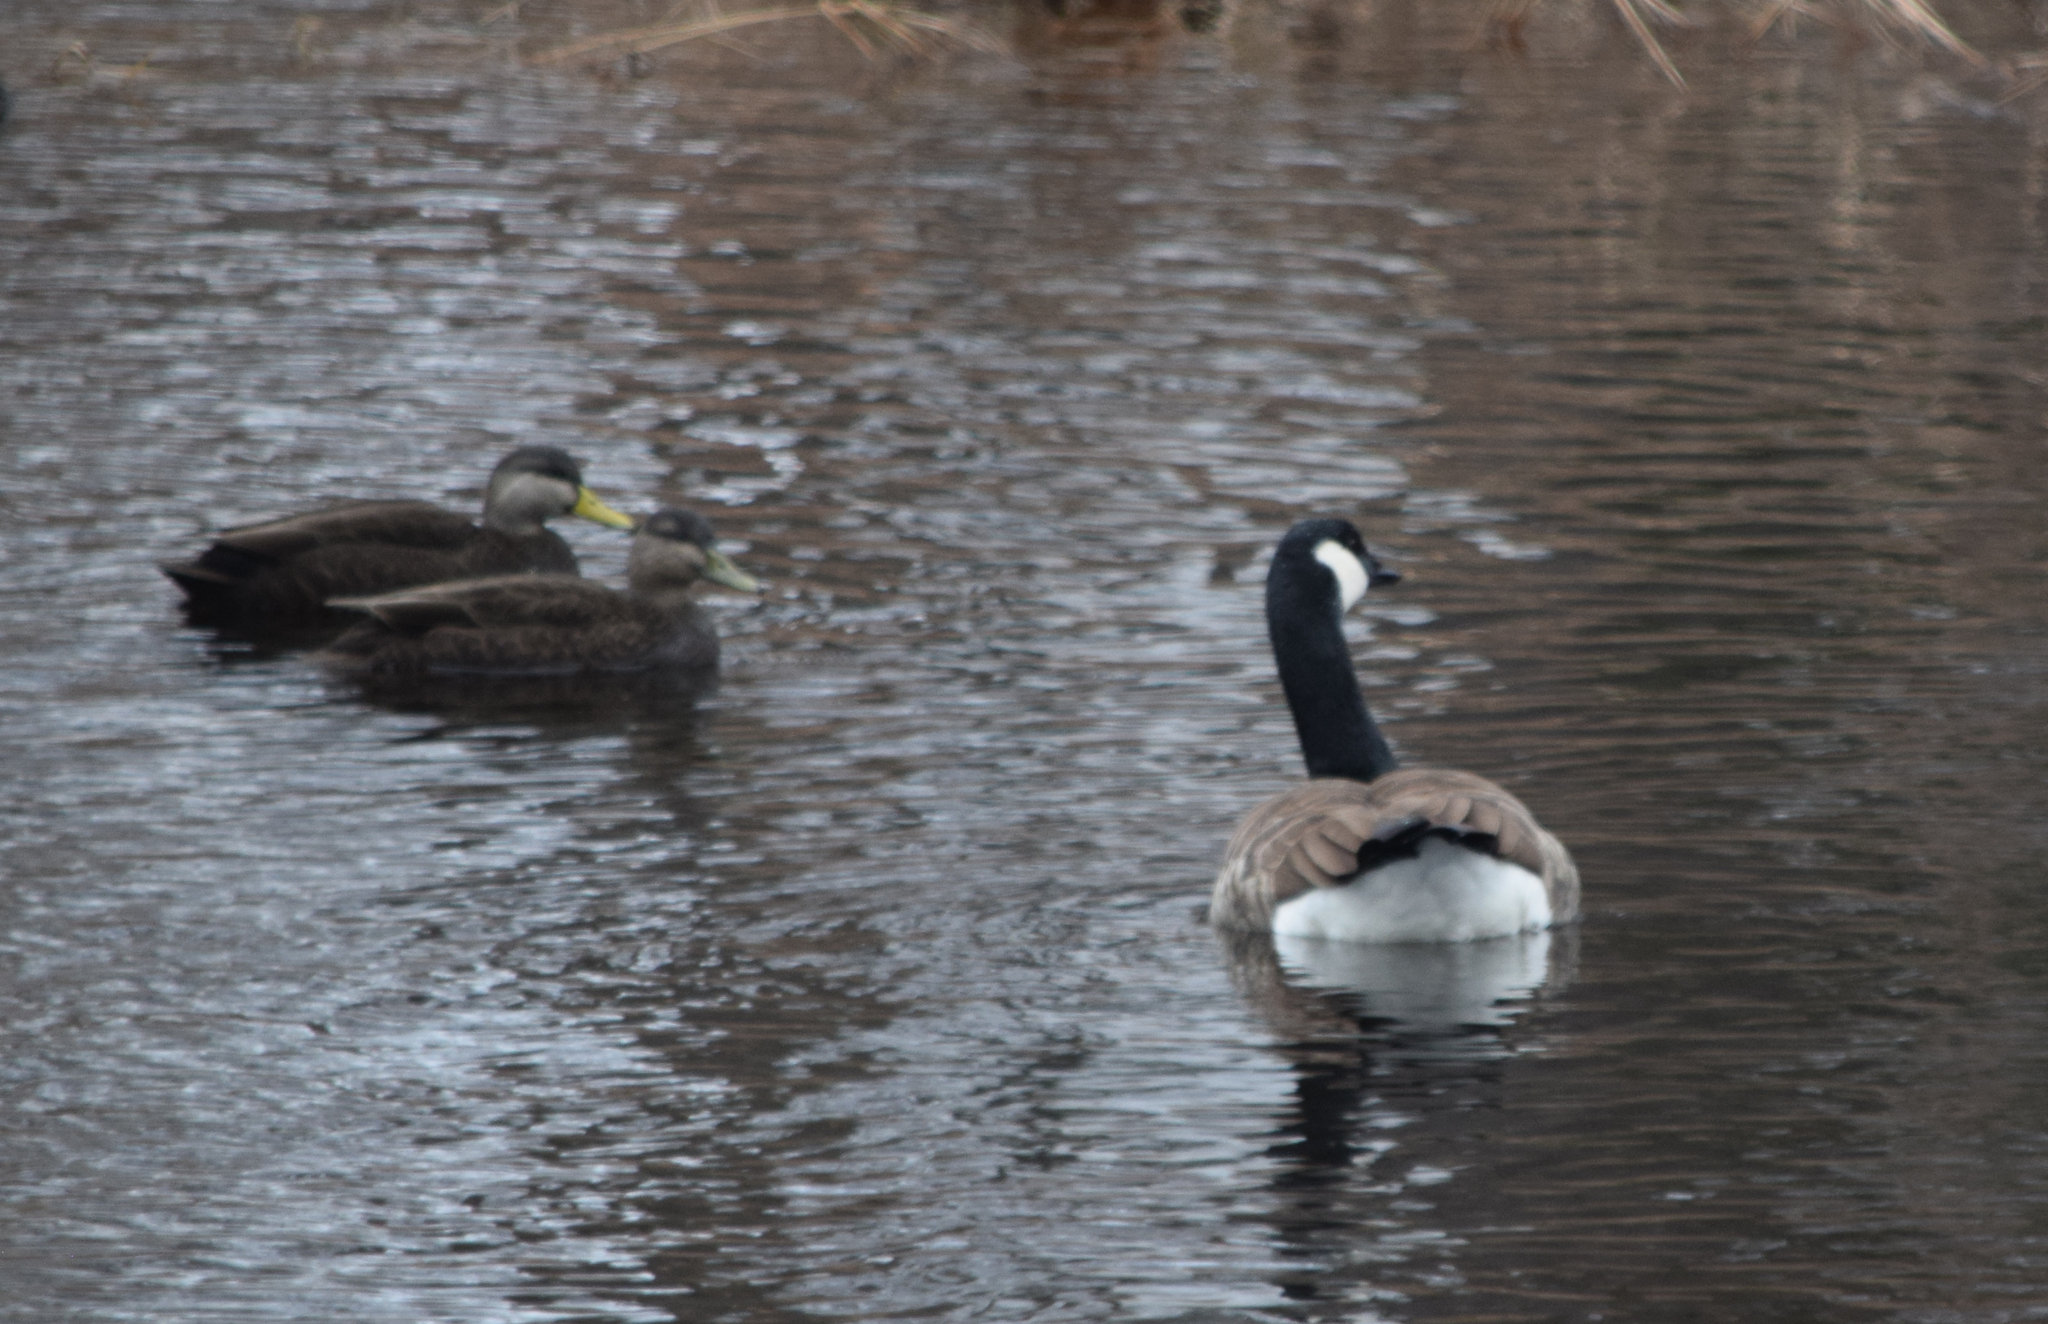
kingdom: Animalia
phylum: Chordata
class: Aves
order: Anseriformes
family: Anatidae
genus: Anas
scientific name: Anas rubripes
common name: American black duck
